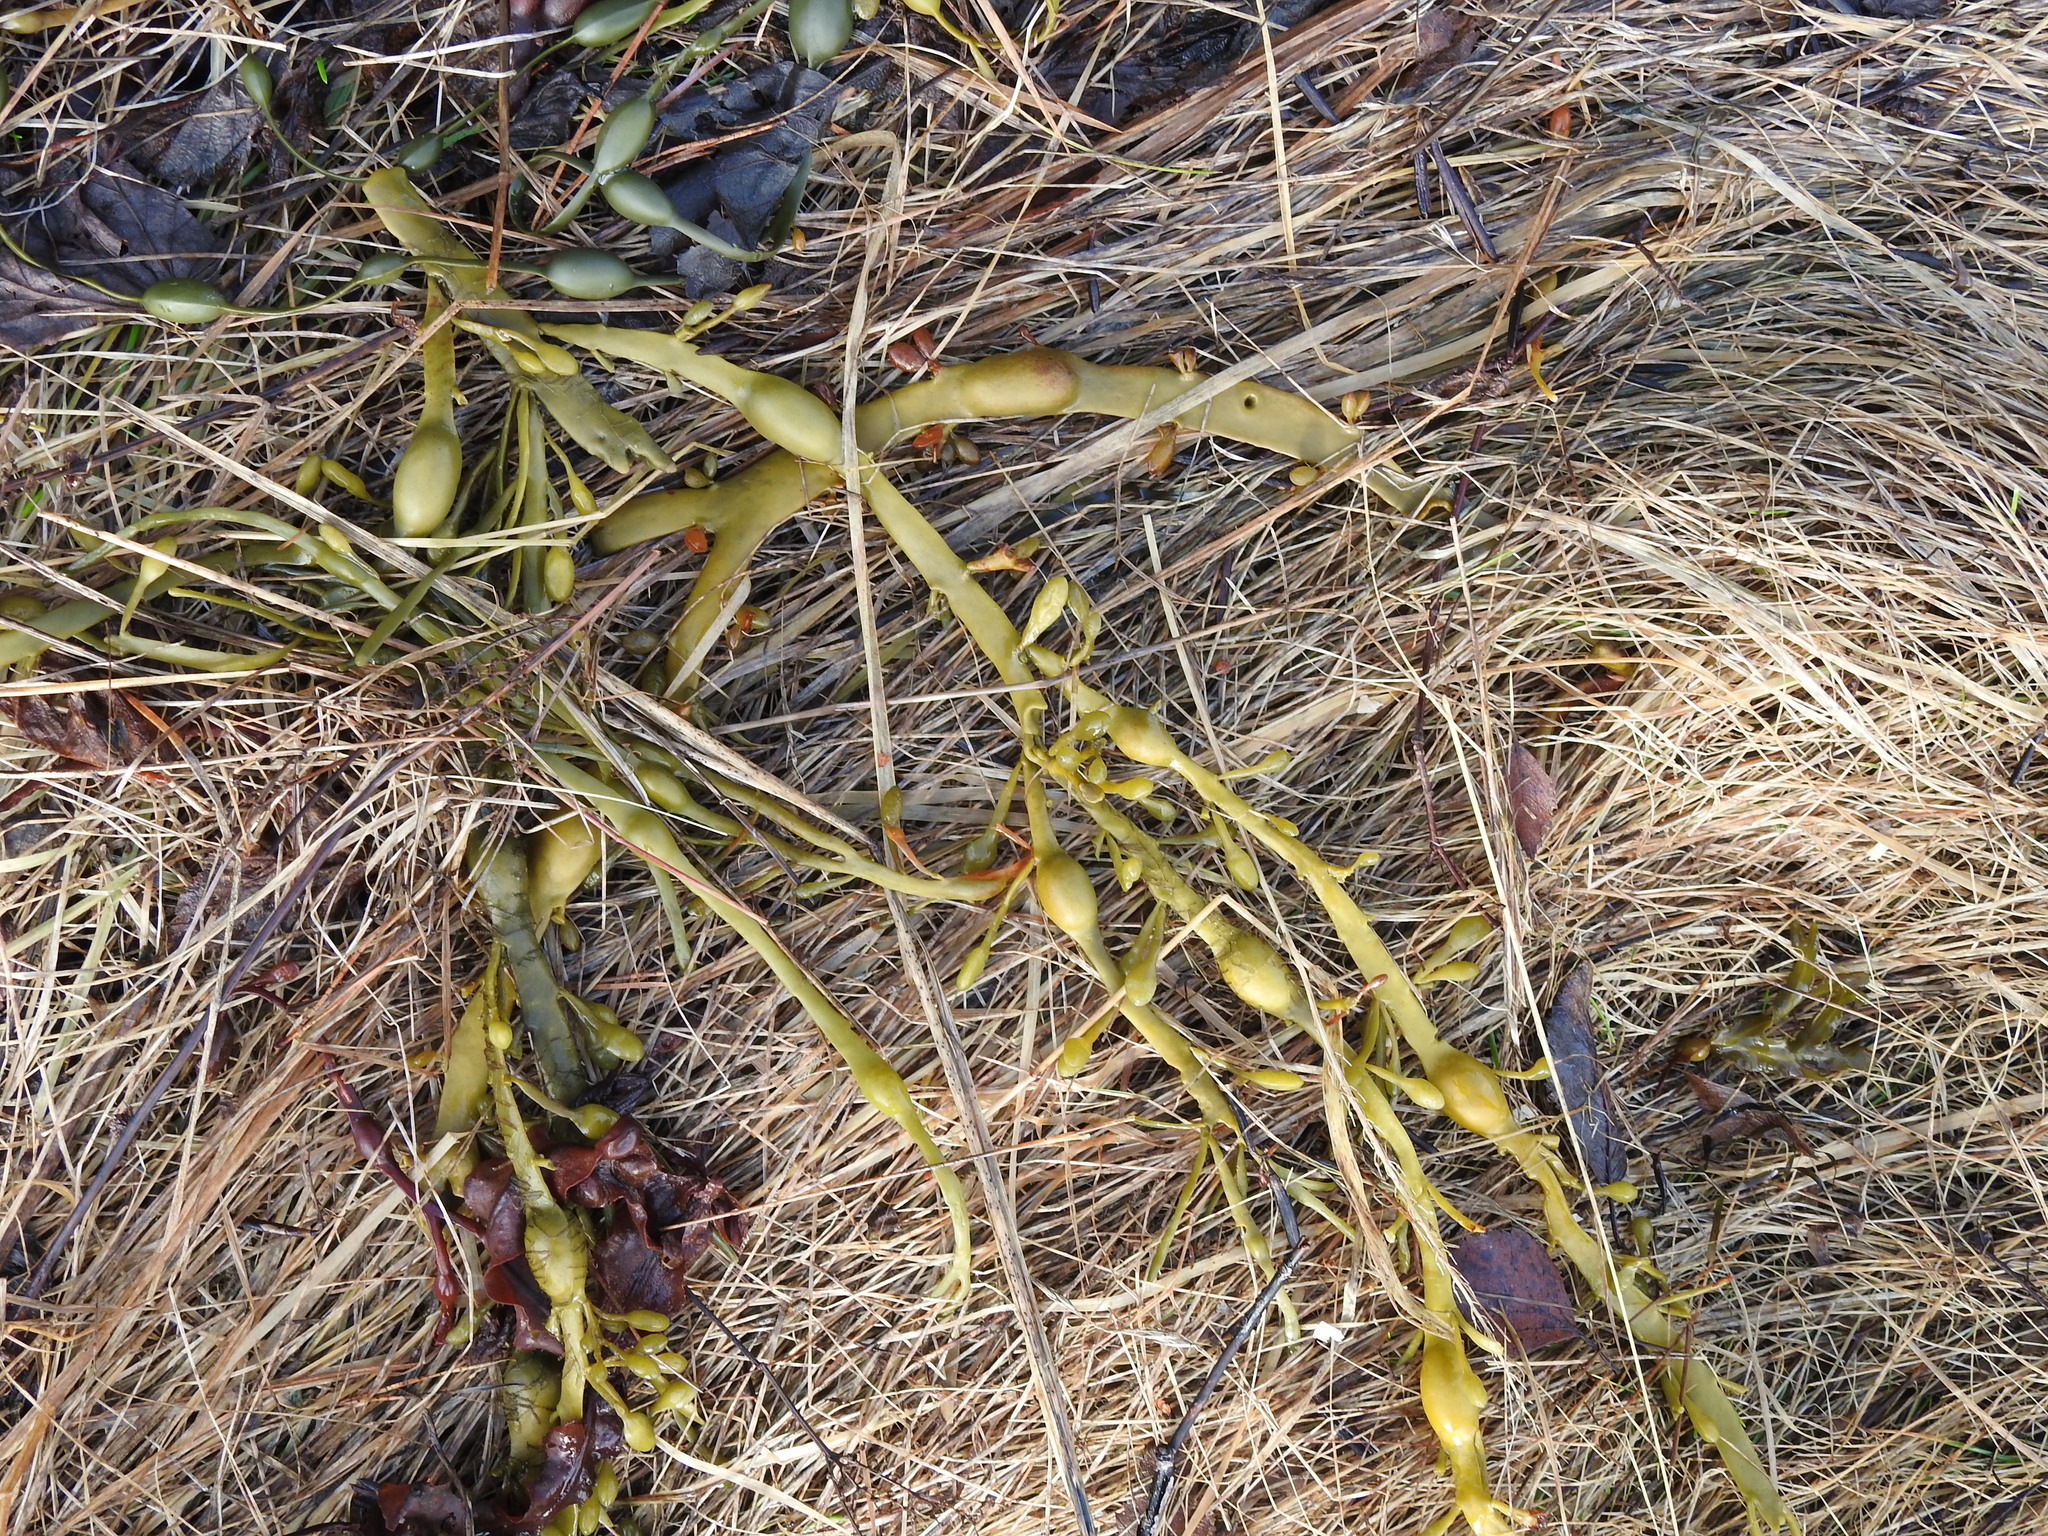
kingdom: Chromista
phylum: Ochrophyta
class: Phaeophyceae
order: Fucales
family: Fucaceae
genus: Ascophyllum
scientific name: Ascophyllum nodosum
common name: Knotted wrack
